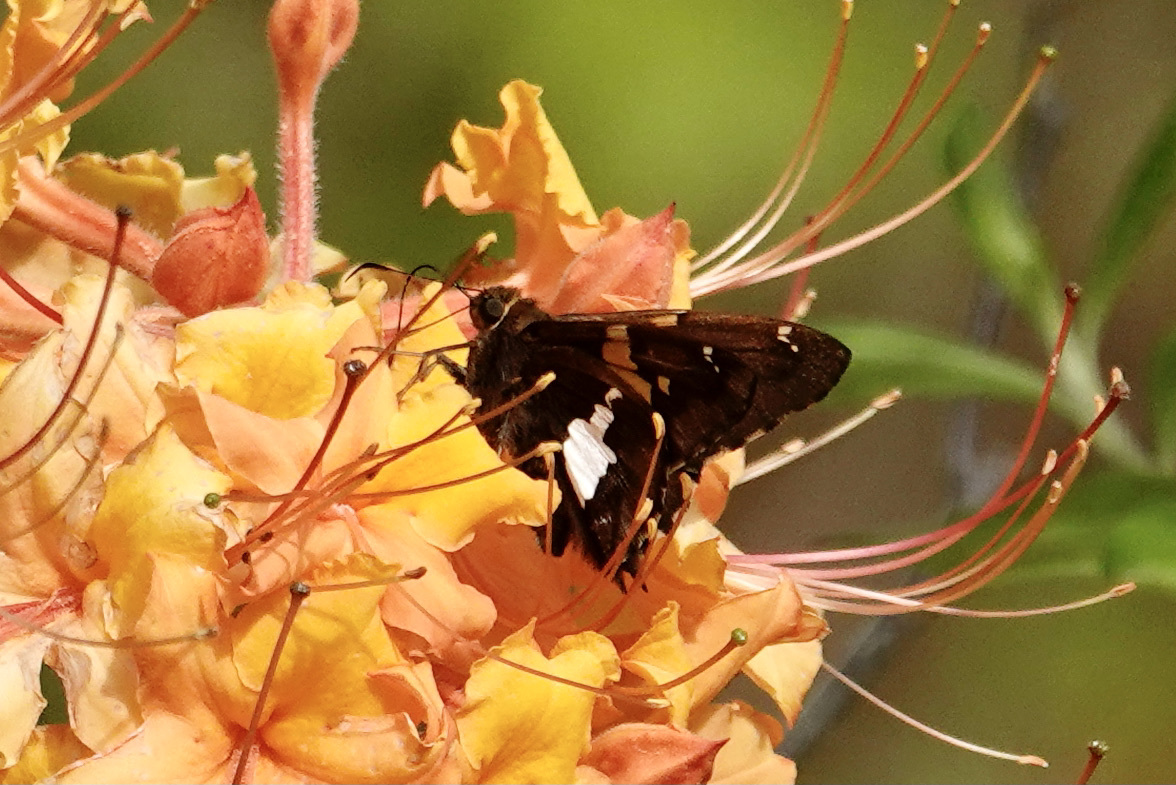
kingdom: Animalia
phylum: Arthropoda
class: Insecta
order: Lepidoptera
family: Hesperiidae
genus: Epargyreus
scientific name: Epargyreus clarus
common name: Silver-spotted skipper
